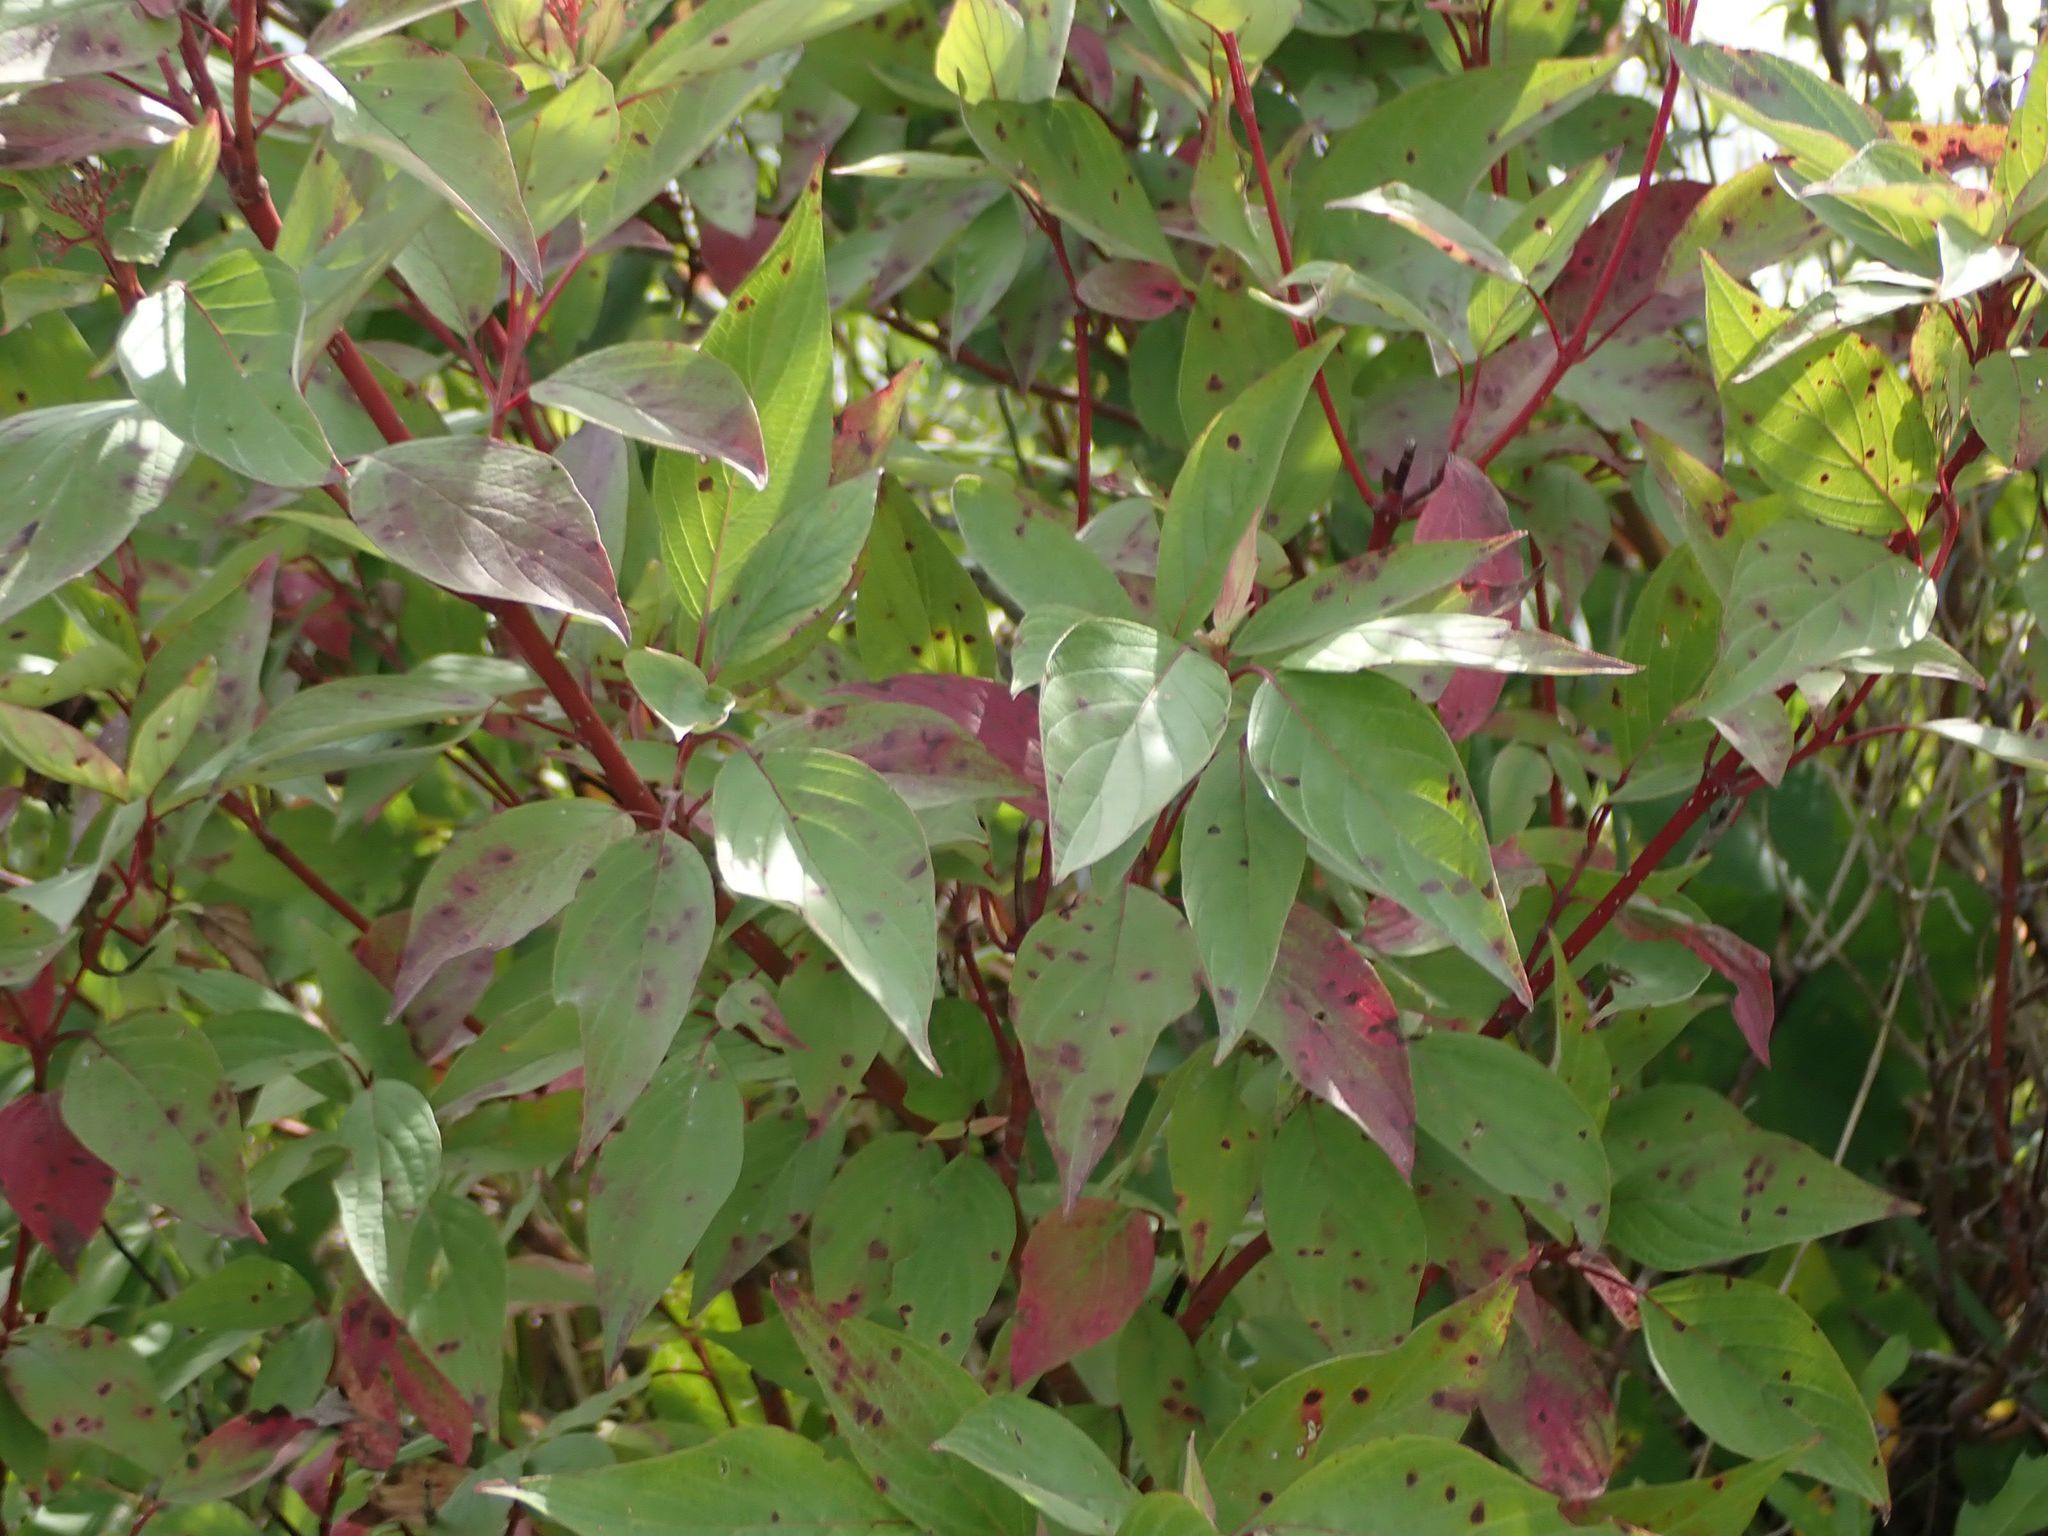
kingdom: Plantae
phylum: Tracheophyta
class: Magnoliopsida
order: Cornales
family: Cornaceae
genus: Cornus
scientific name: Cornus sericea
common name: Red-osier dogwood
